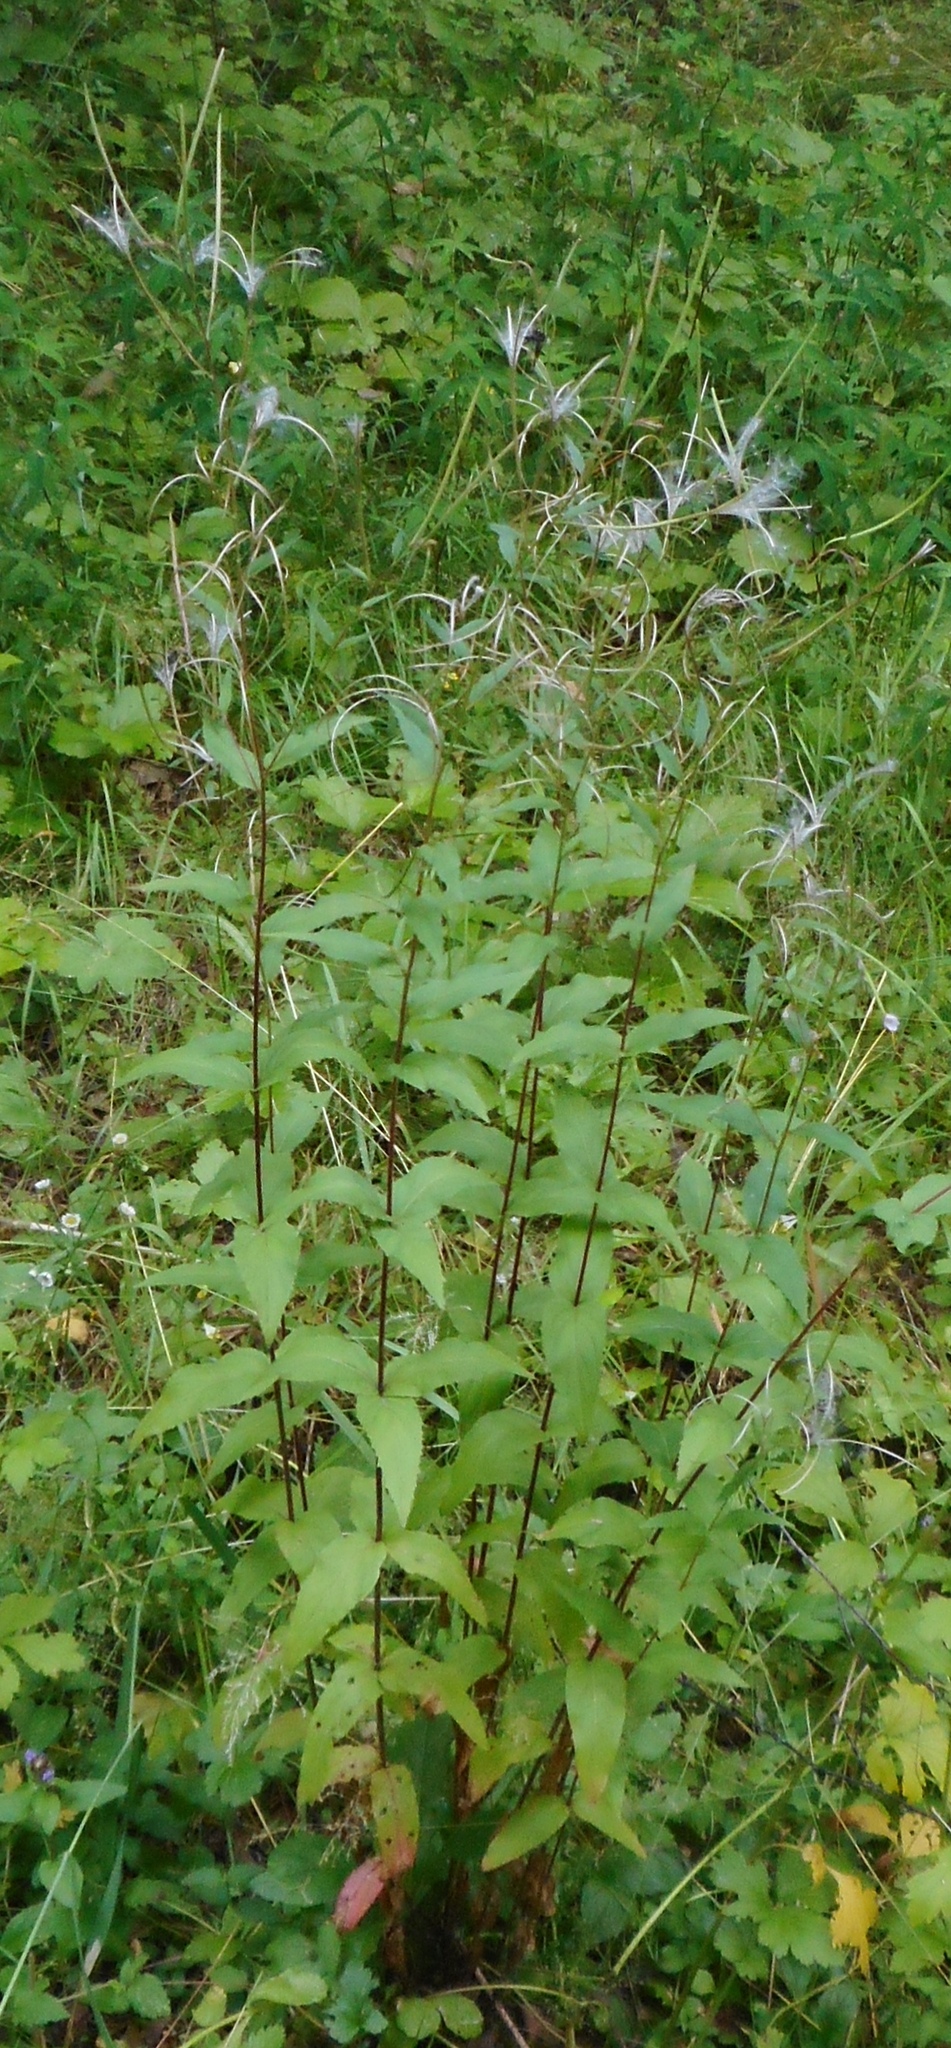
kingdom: Plantae
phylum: Tracheophyta
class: Magnoliopsida
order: Myrtales
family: Onagraceae
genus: Epilobium
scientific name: Epilobium montanum
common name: Broad-leaved willowherb
